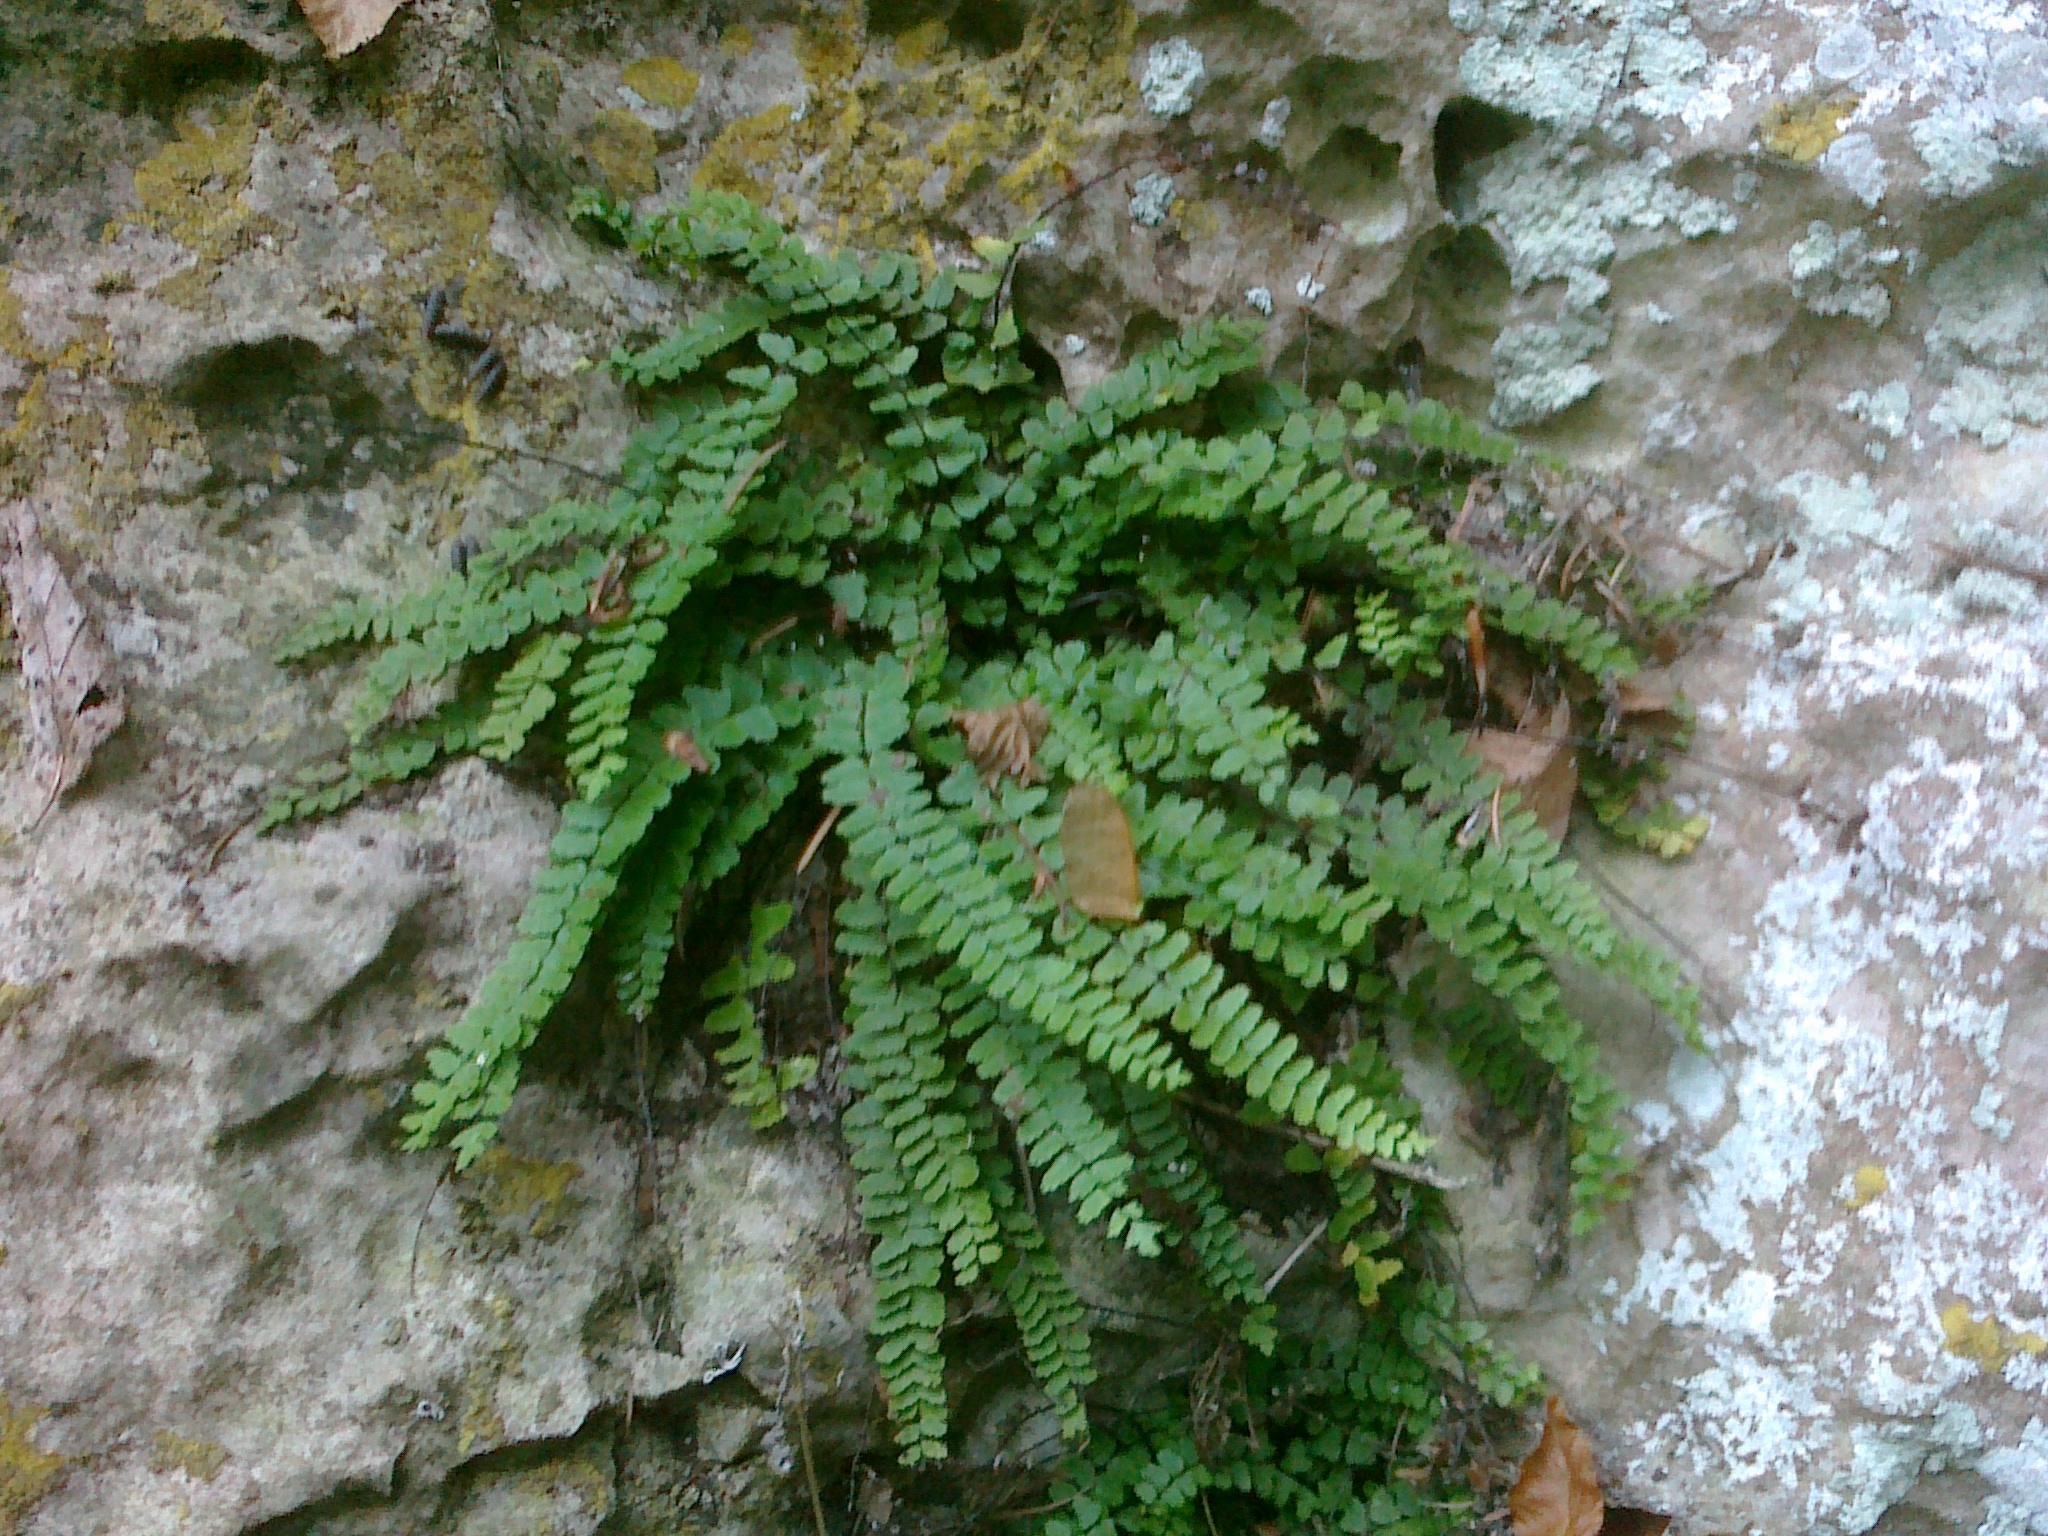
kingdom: Plantae
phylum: Tracheophyta
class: Polypodiopsida
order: Polypodiales
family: Aspleniaceae
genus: Asplenium
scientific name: Asplenium trichomanes
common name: Maidenhair spleenwort
